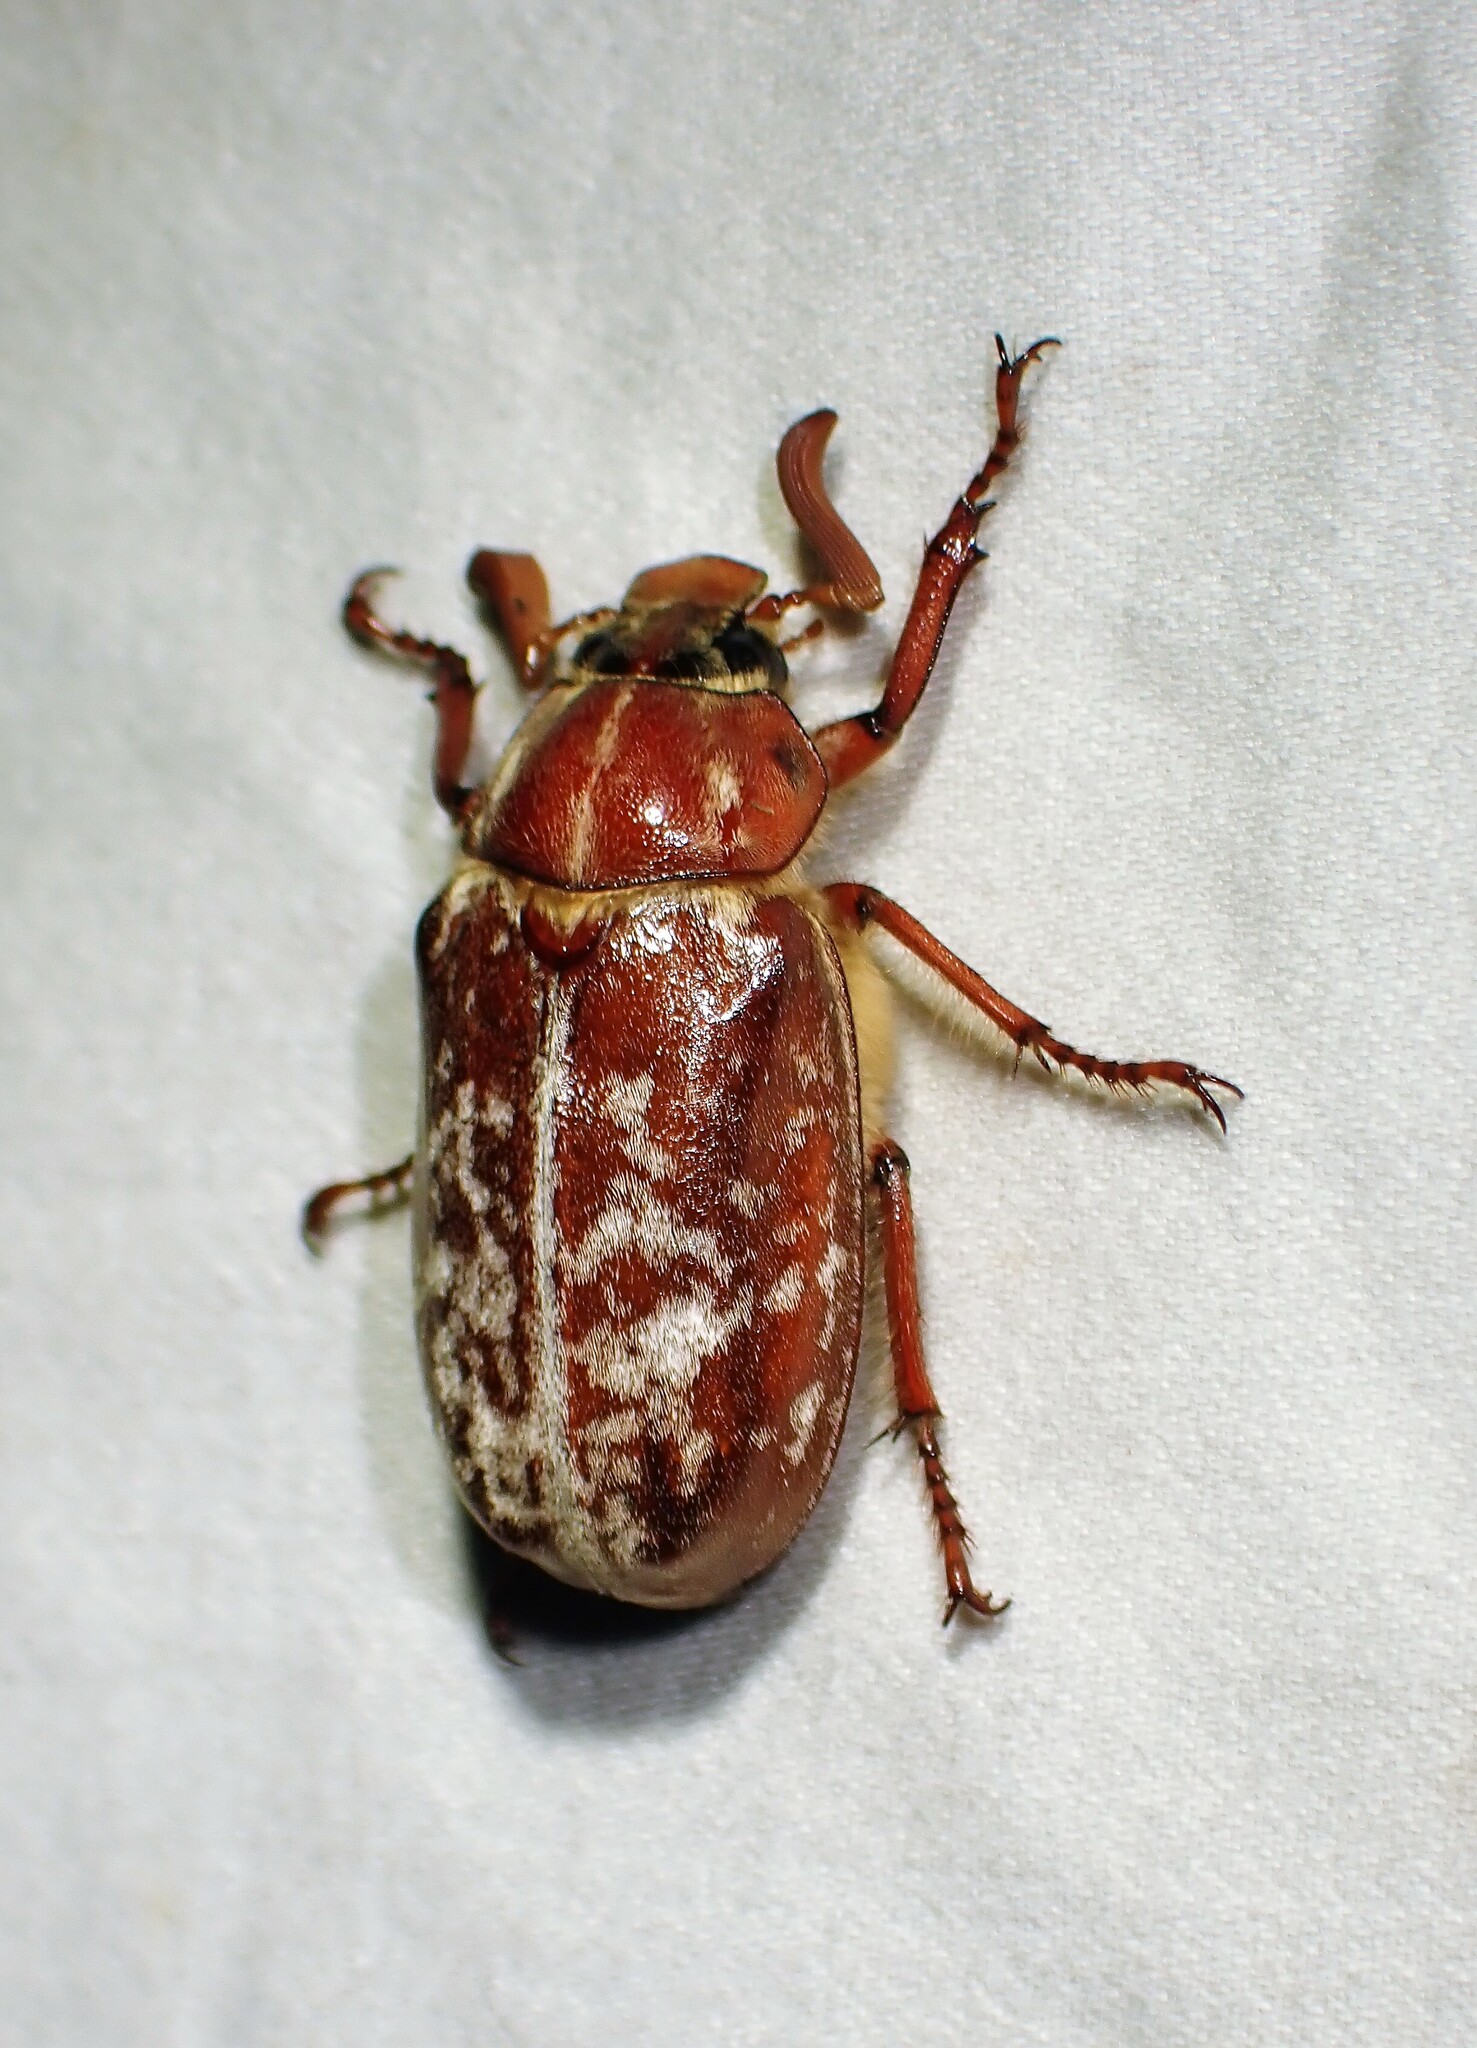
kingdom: Animalia
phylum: Arthropoda
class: Insecta
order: Coleoptera
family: Scarabaeidae
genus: Polyphylla
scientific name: Polyphylla variolosa
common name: Variegated june beetle
